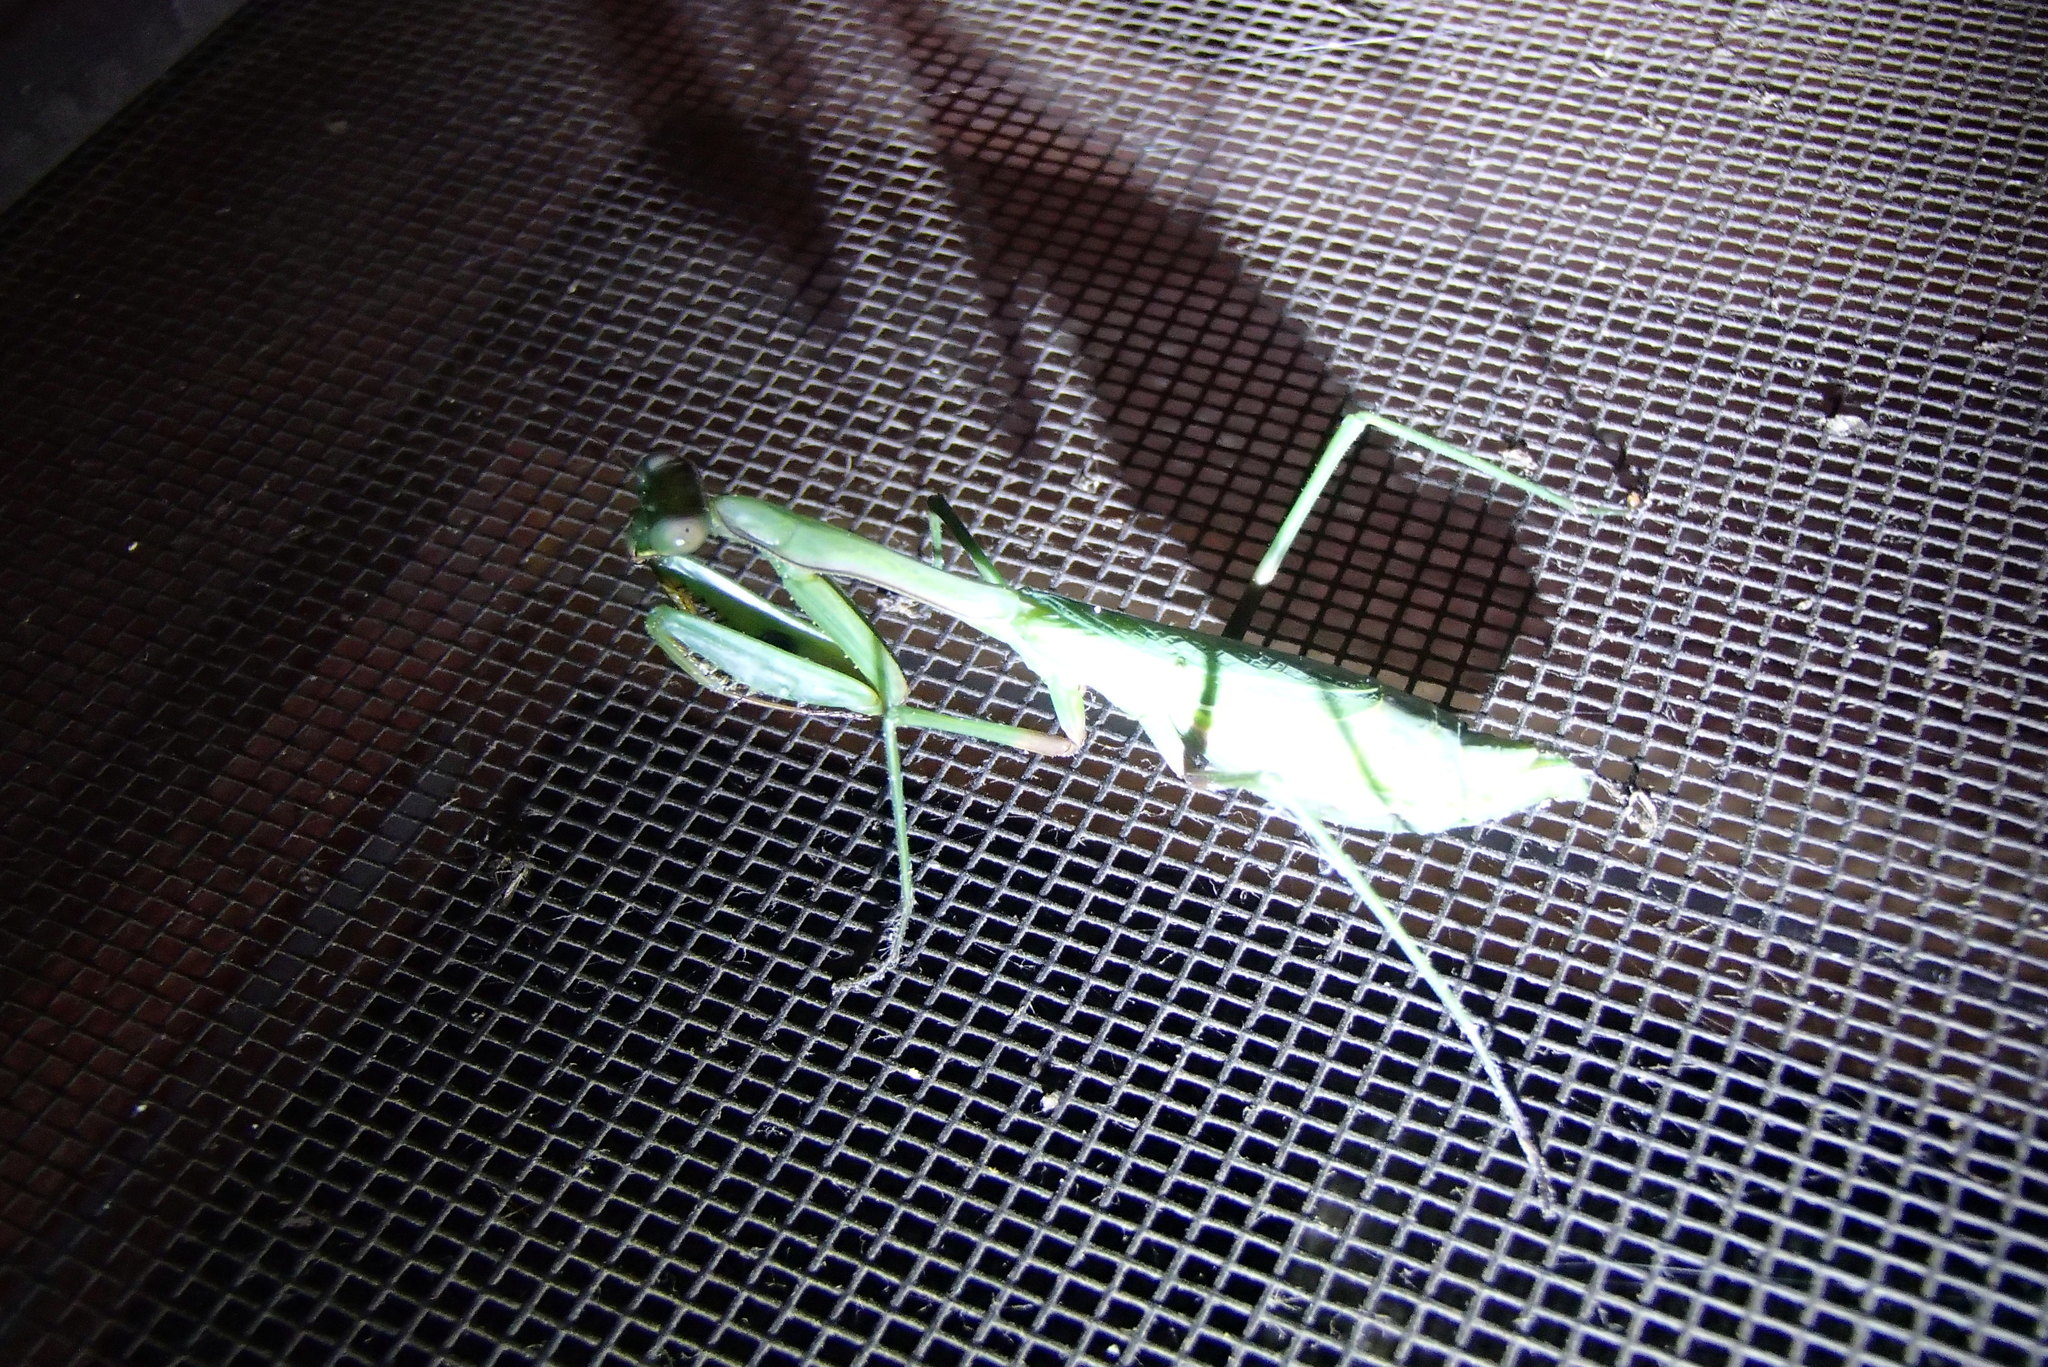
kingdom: Animalia
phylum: Arthropoda
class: Insecta
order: Mantodea
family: Mantidae
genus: Pseudomantis
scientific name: Pseudomantis albofimbriata
